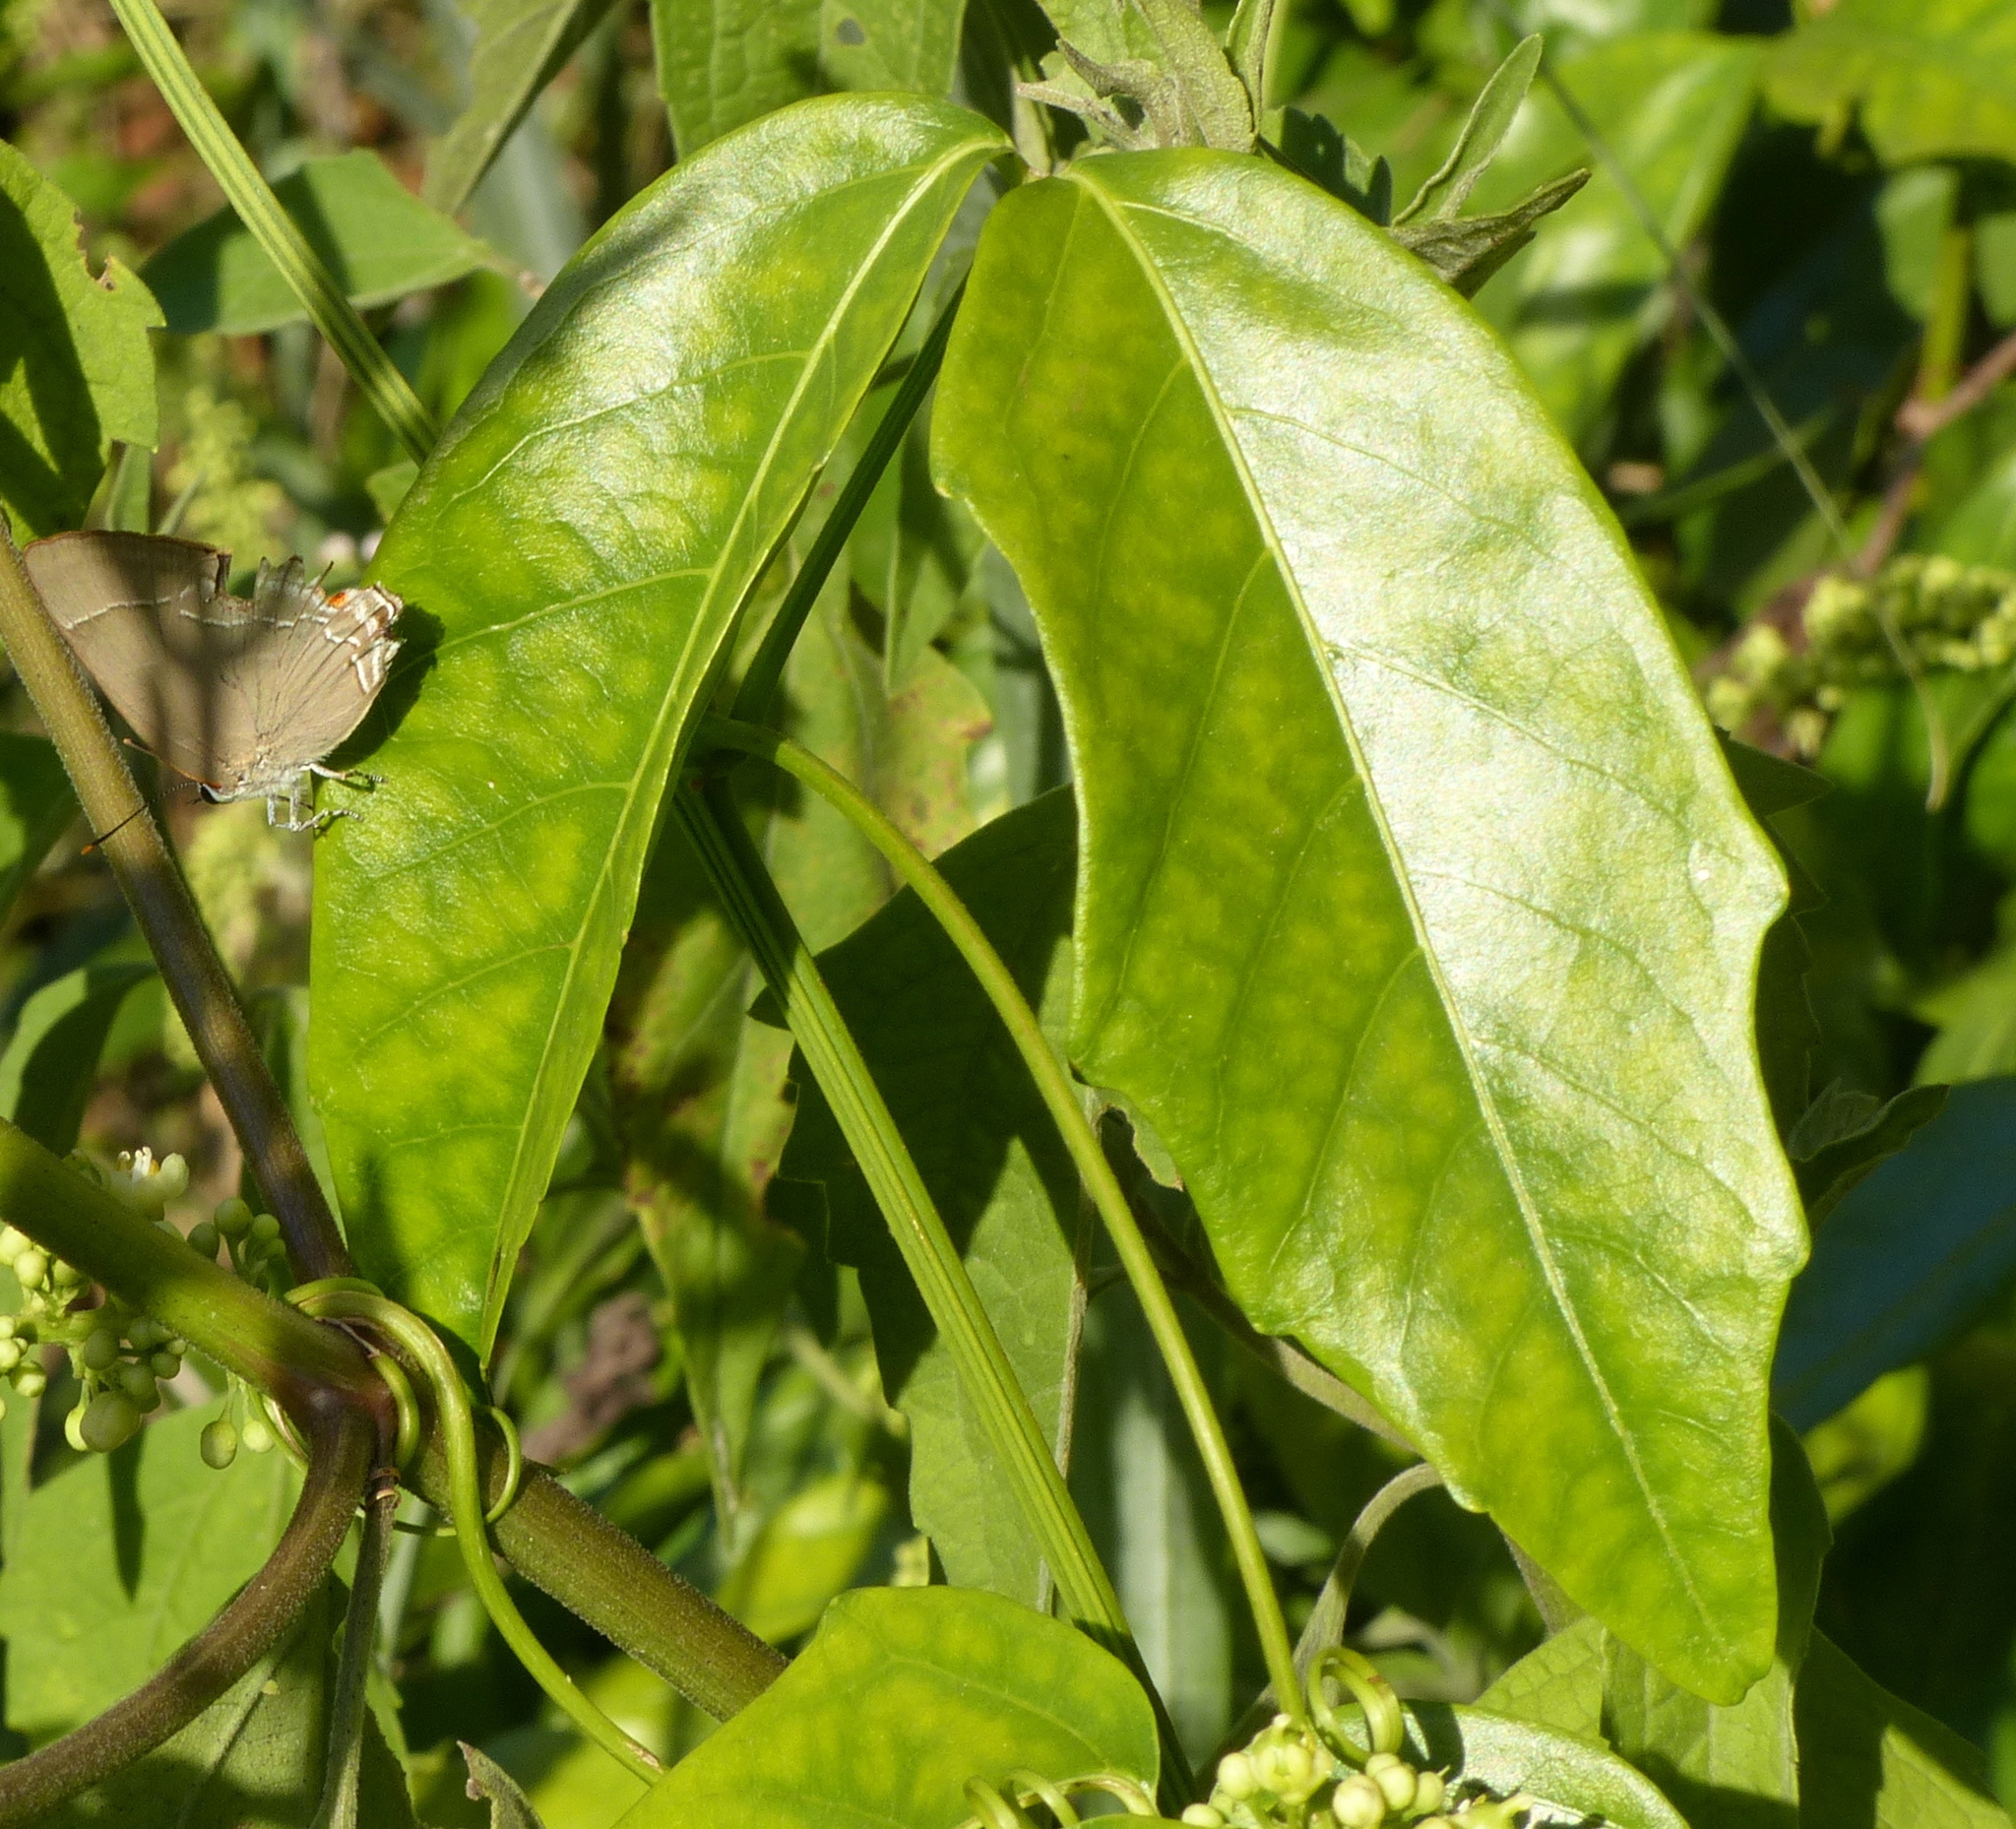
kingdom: Animalia
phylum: Arthropoda
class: Insecta
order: Lepidoptera
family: Lycaenidae
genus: Thecla
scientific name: Thecla spurina
